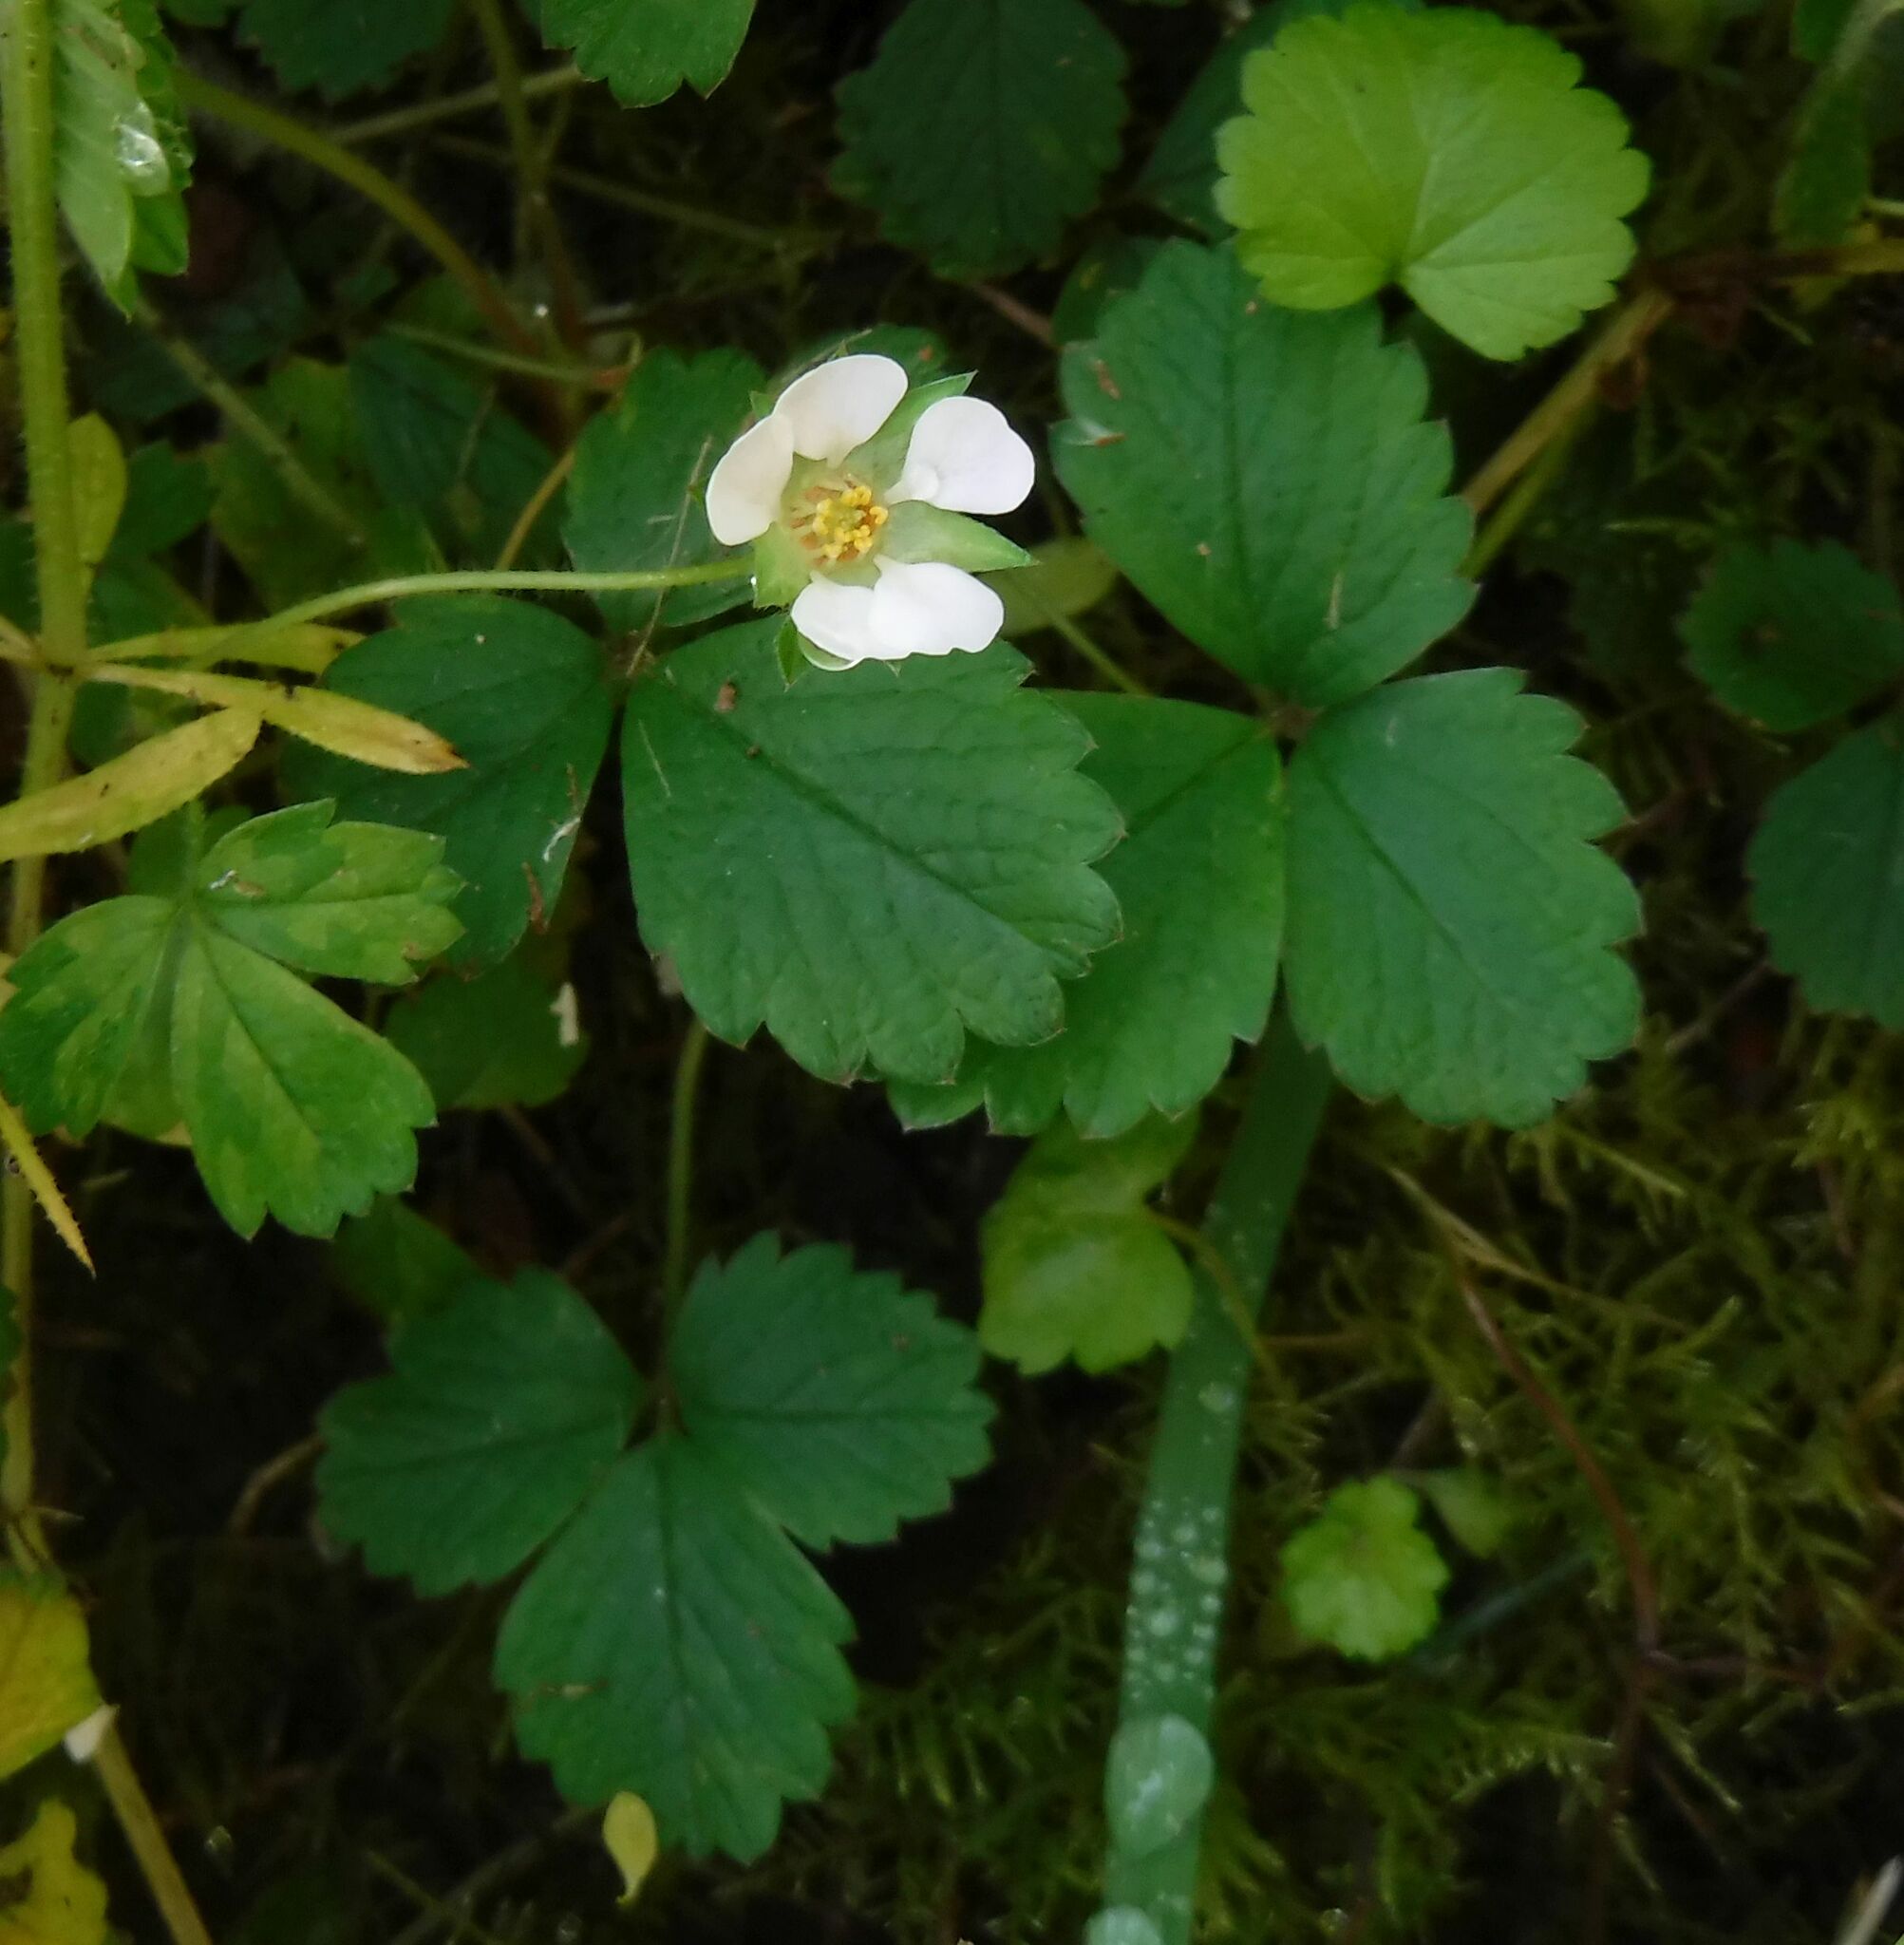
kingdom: Plantae
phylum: Tracheophyta
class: Magnoliopsida
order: Rosales
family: Rosaceae
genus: Potentilla
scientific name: Potentilla sterilis
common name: Barren strawberry
